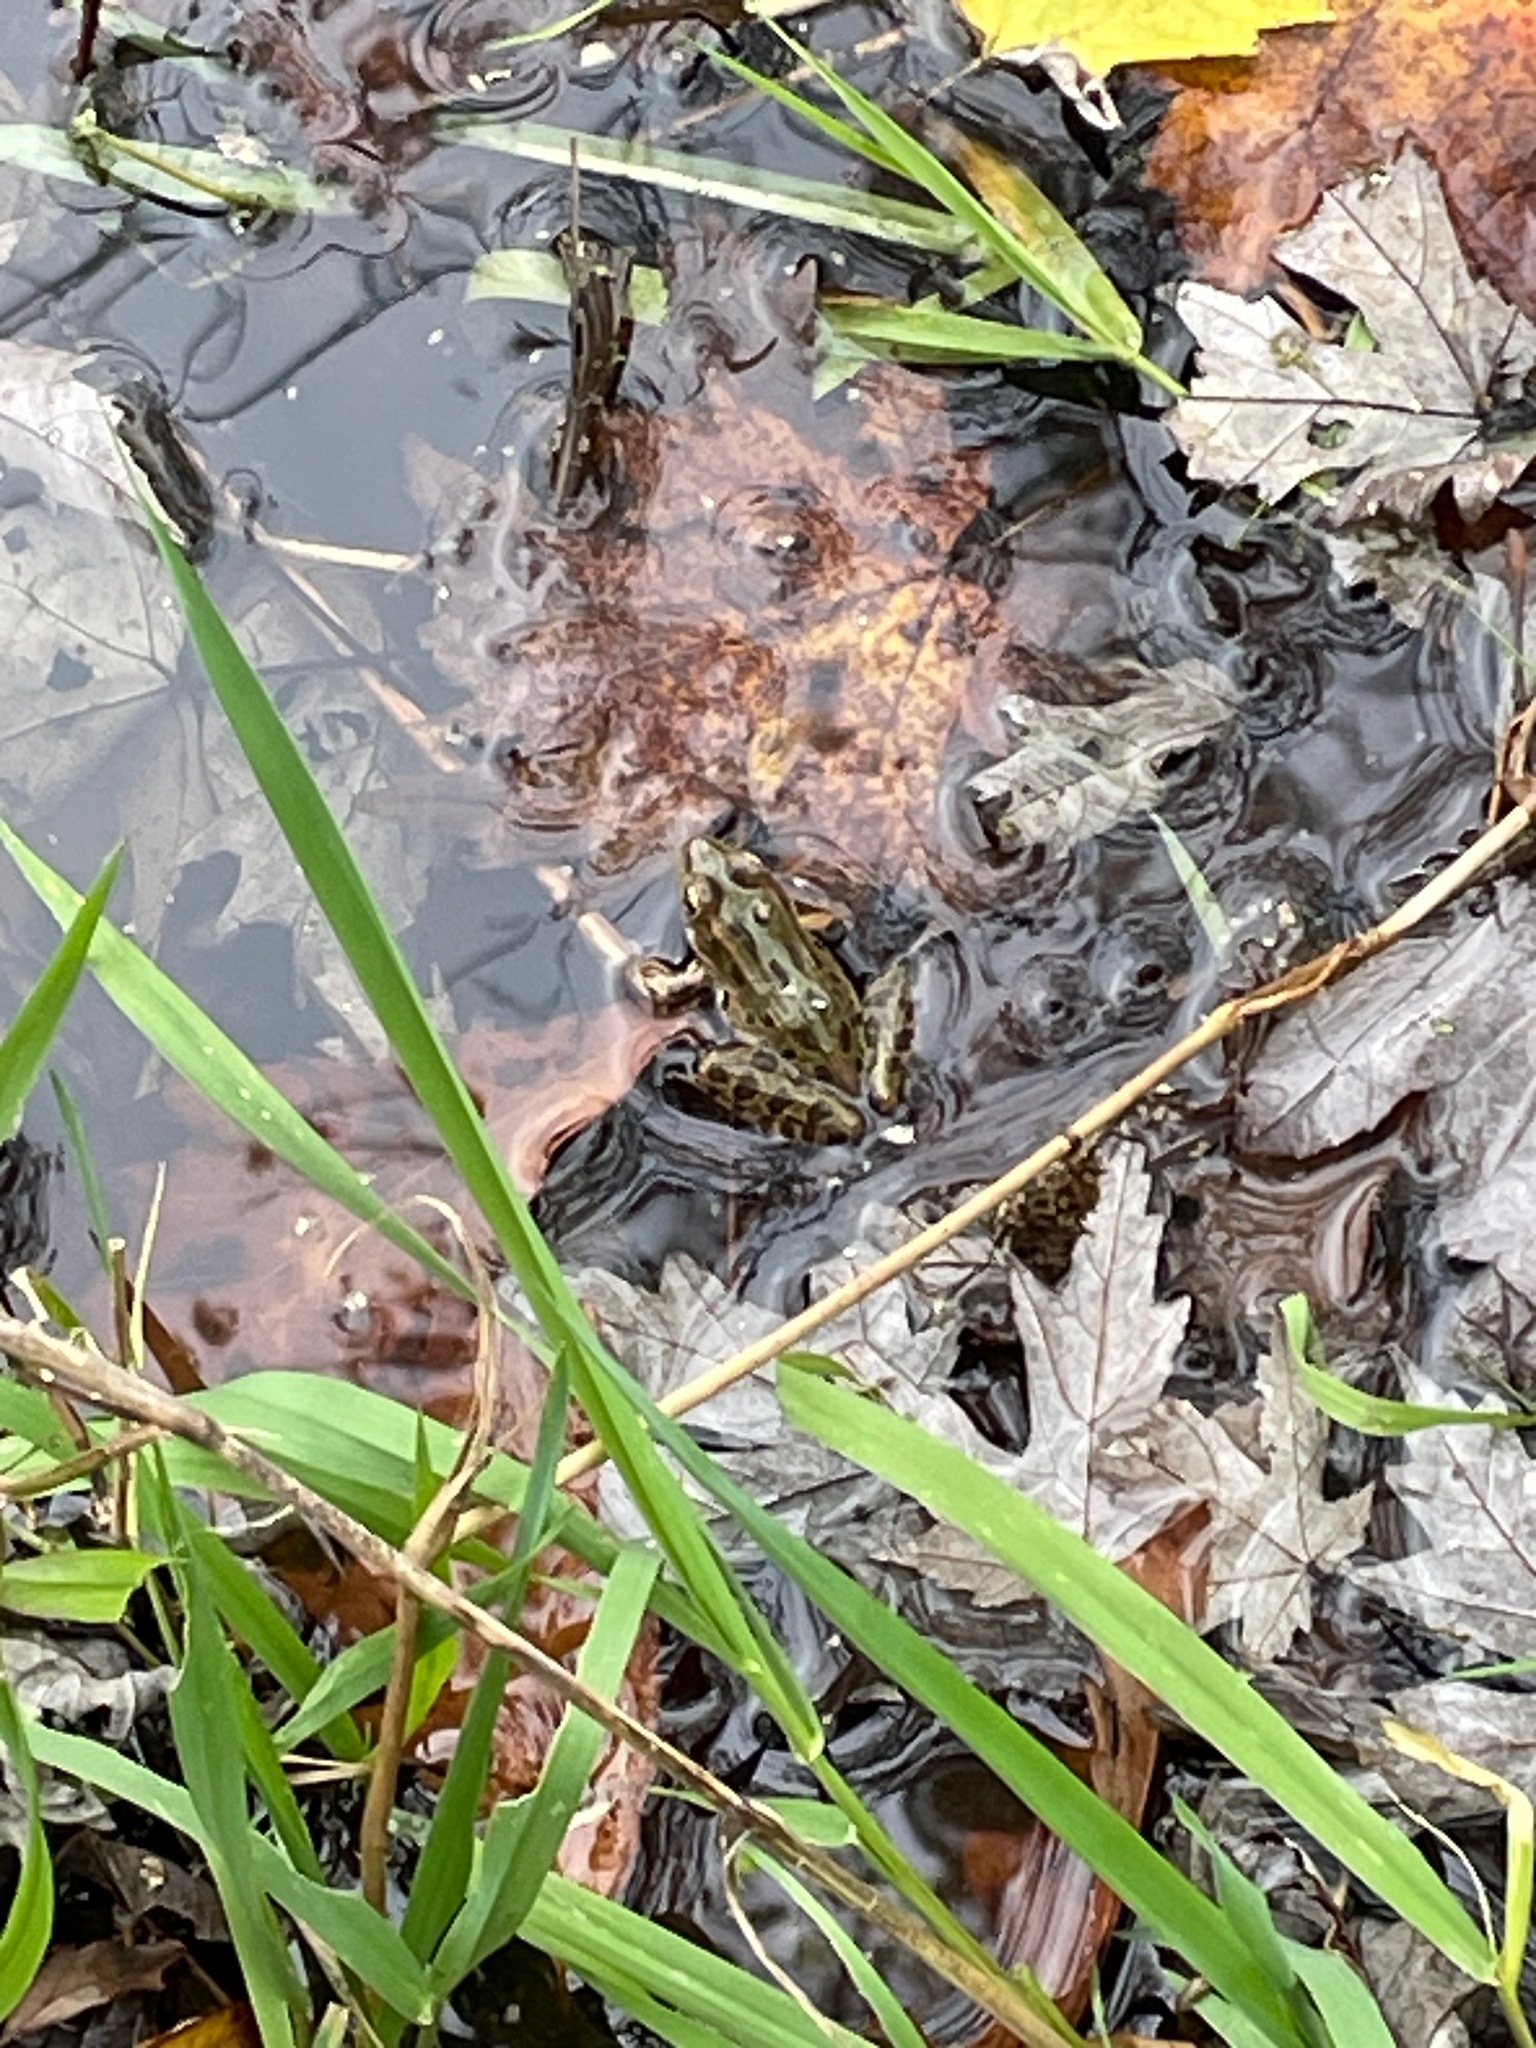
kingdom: Animalia
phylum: Chordata
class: Amphibia
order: Anura
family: Ranidae
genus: Lithobates
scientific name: Lithobates pipiens
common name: Northern leopard frog
